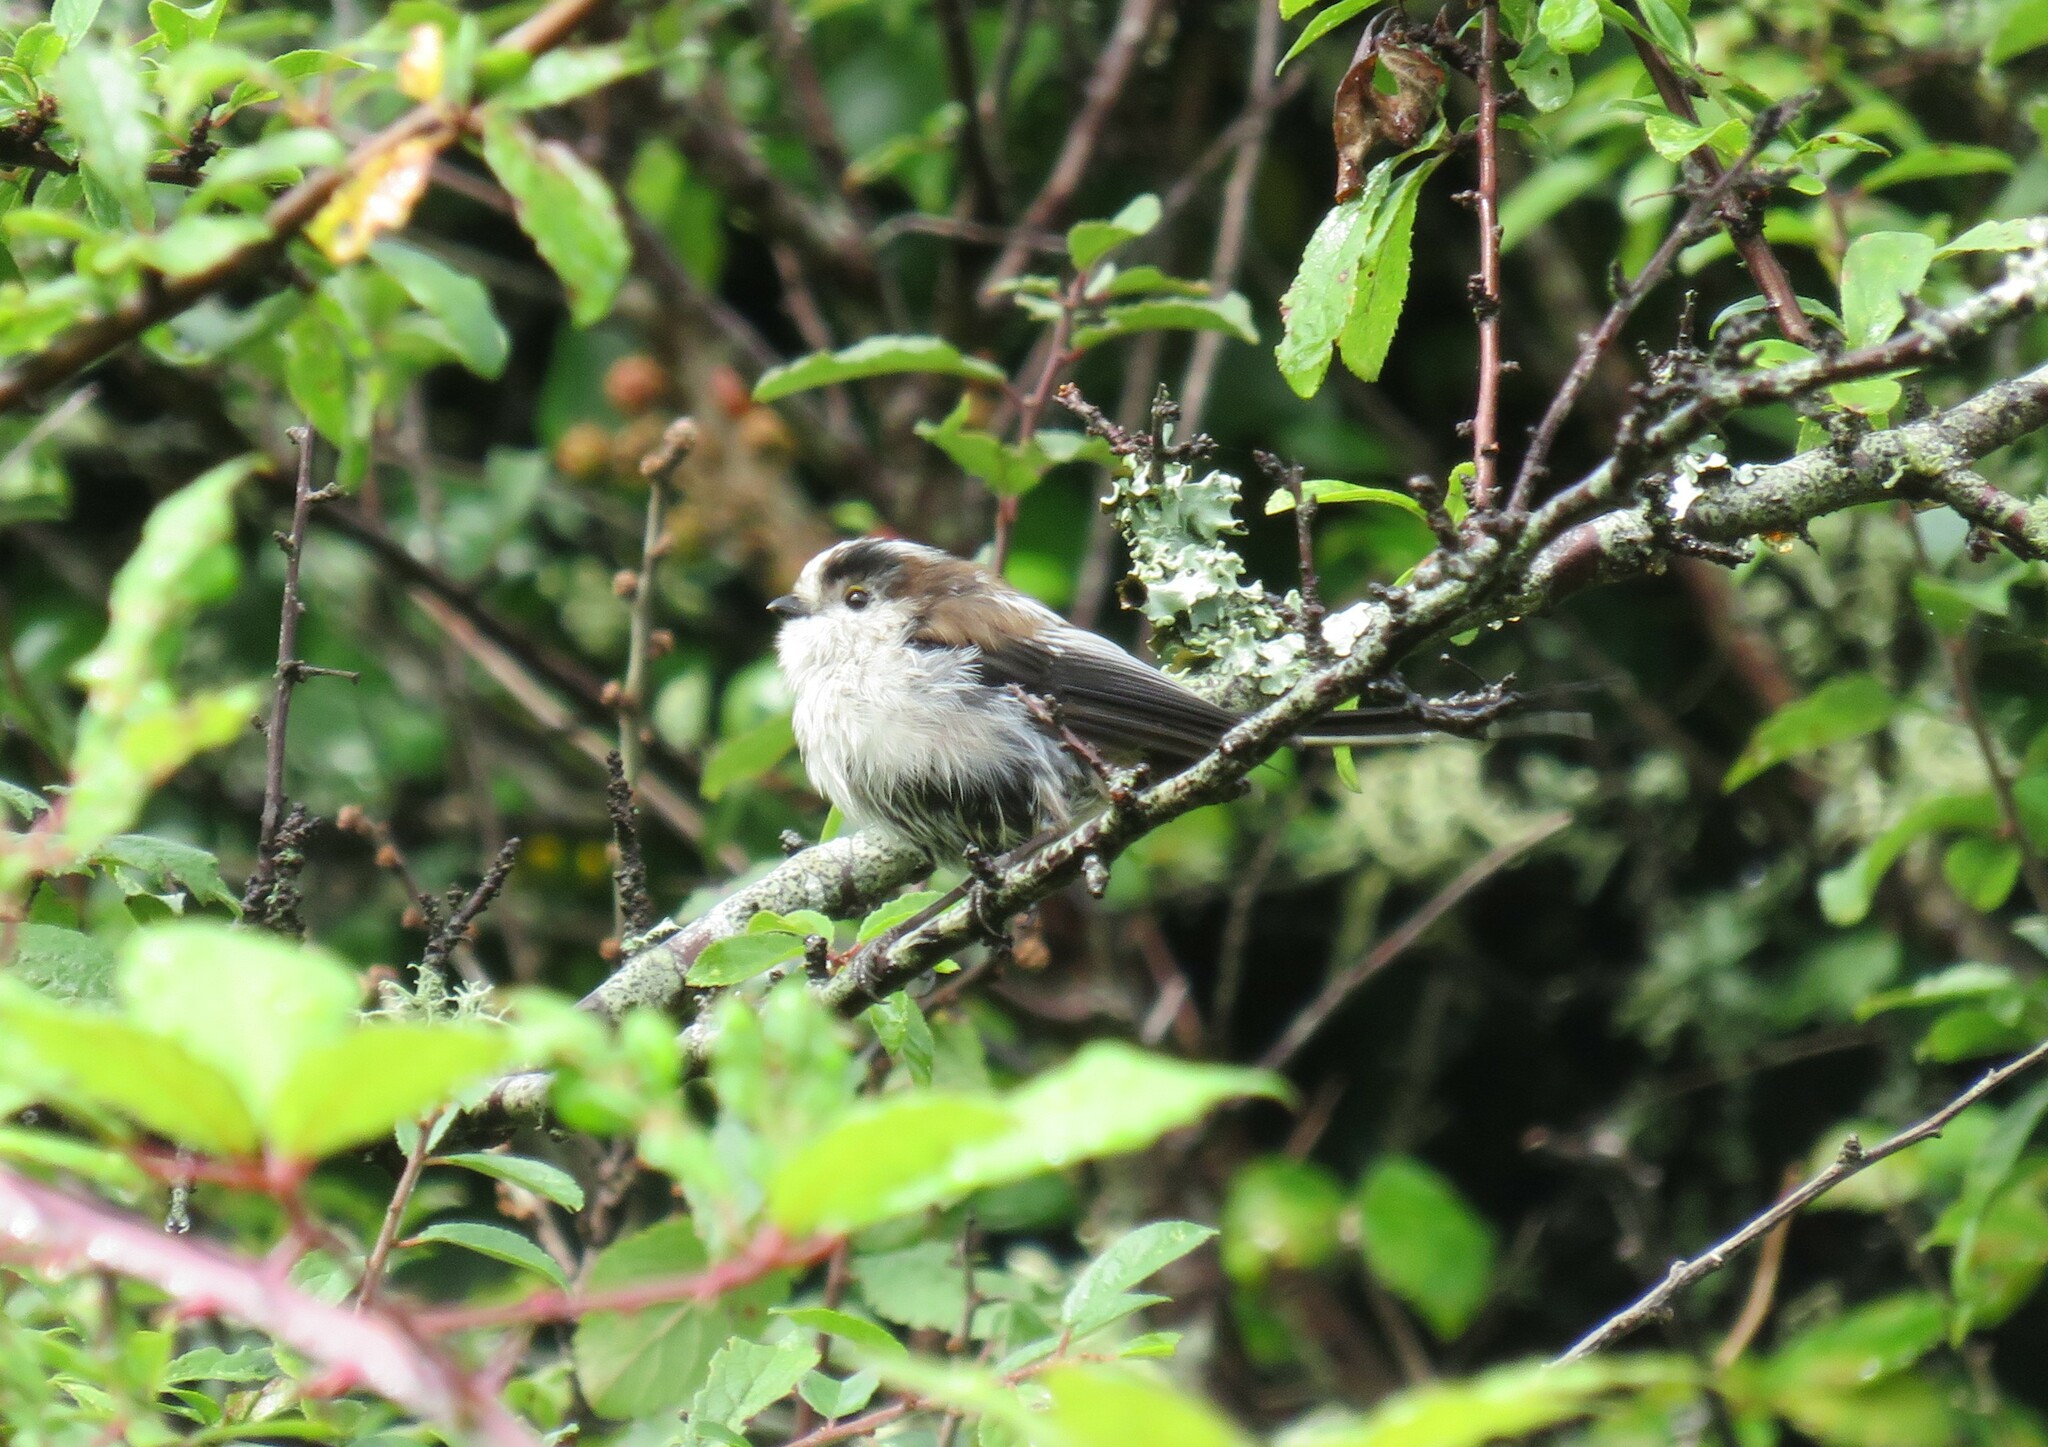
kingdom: Animalia
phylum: Chordata
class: Aves
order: Passeriformes
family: Aegithalidae
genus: Aegithalos
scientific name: Aegithalos caudatus
